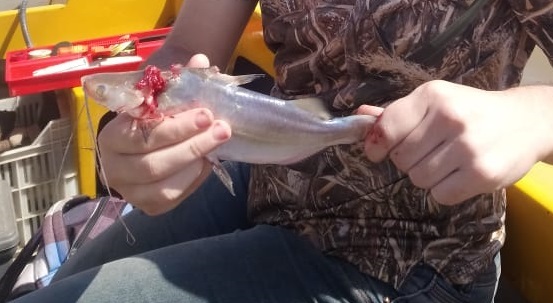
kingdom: Animalia
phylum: Chordata
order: Siluriformes
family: Pimelodidae
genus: Parapimelodus
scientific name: Parapimelodus valenciennis
